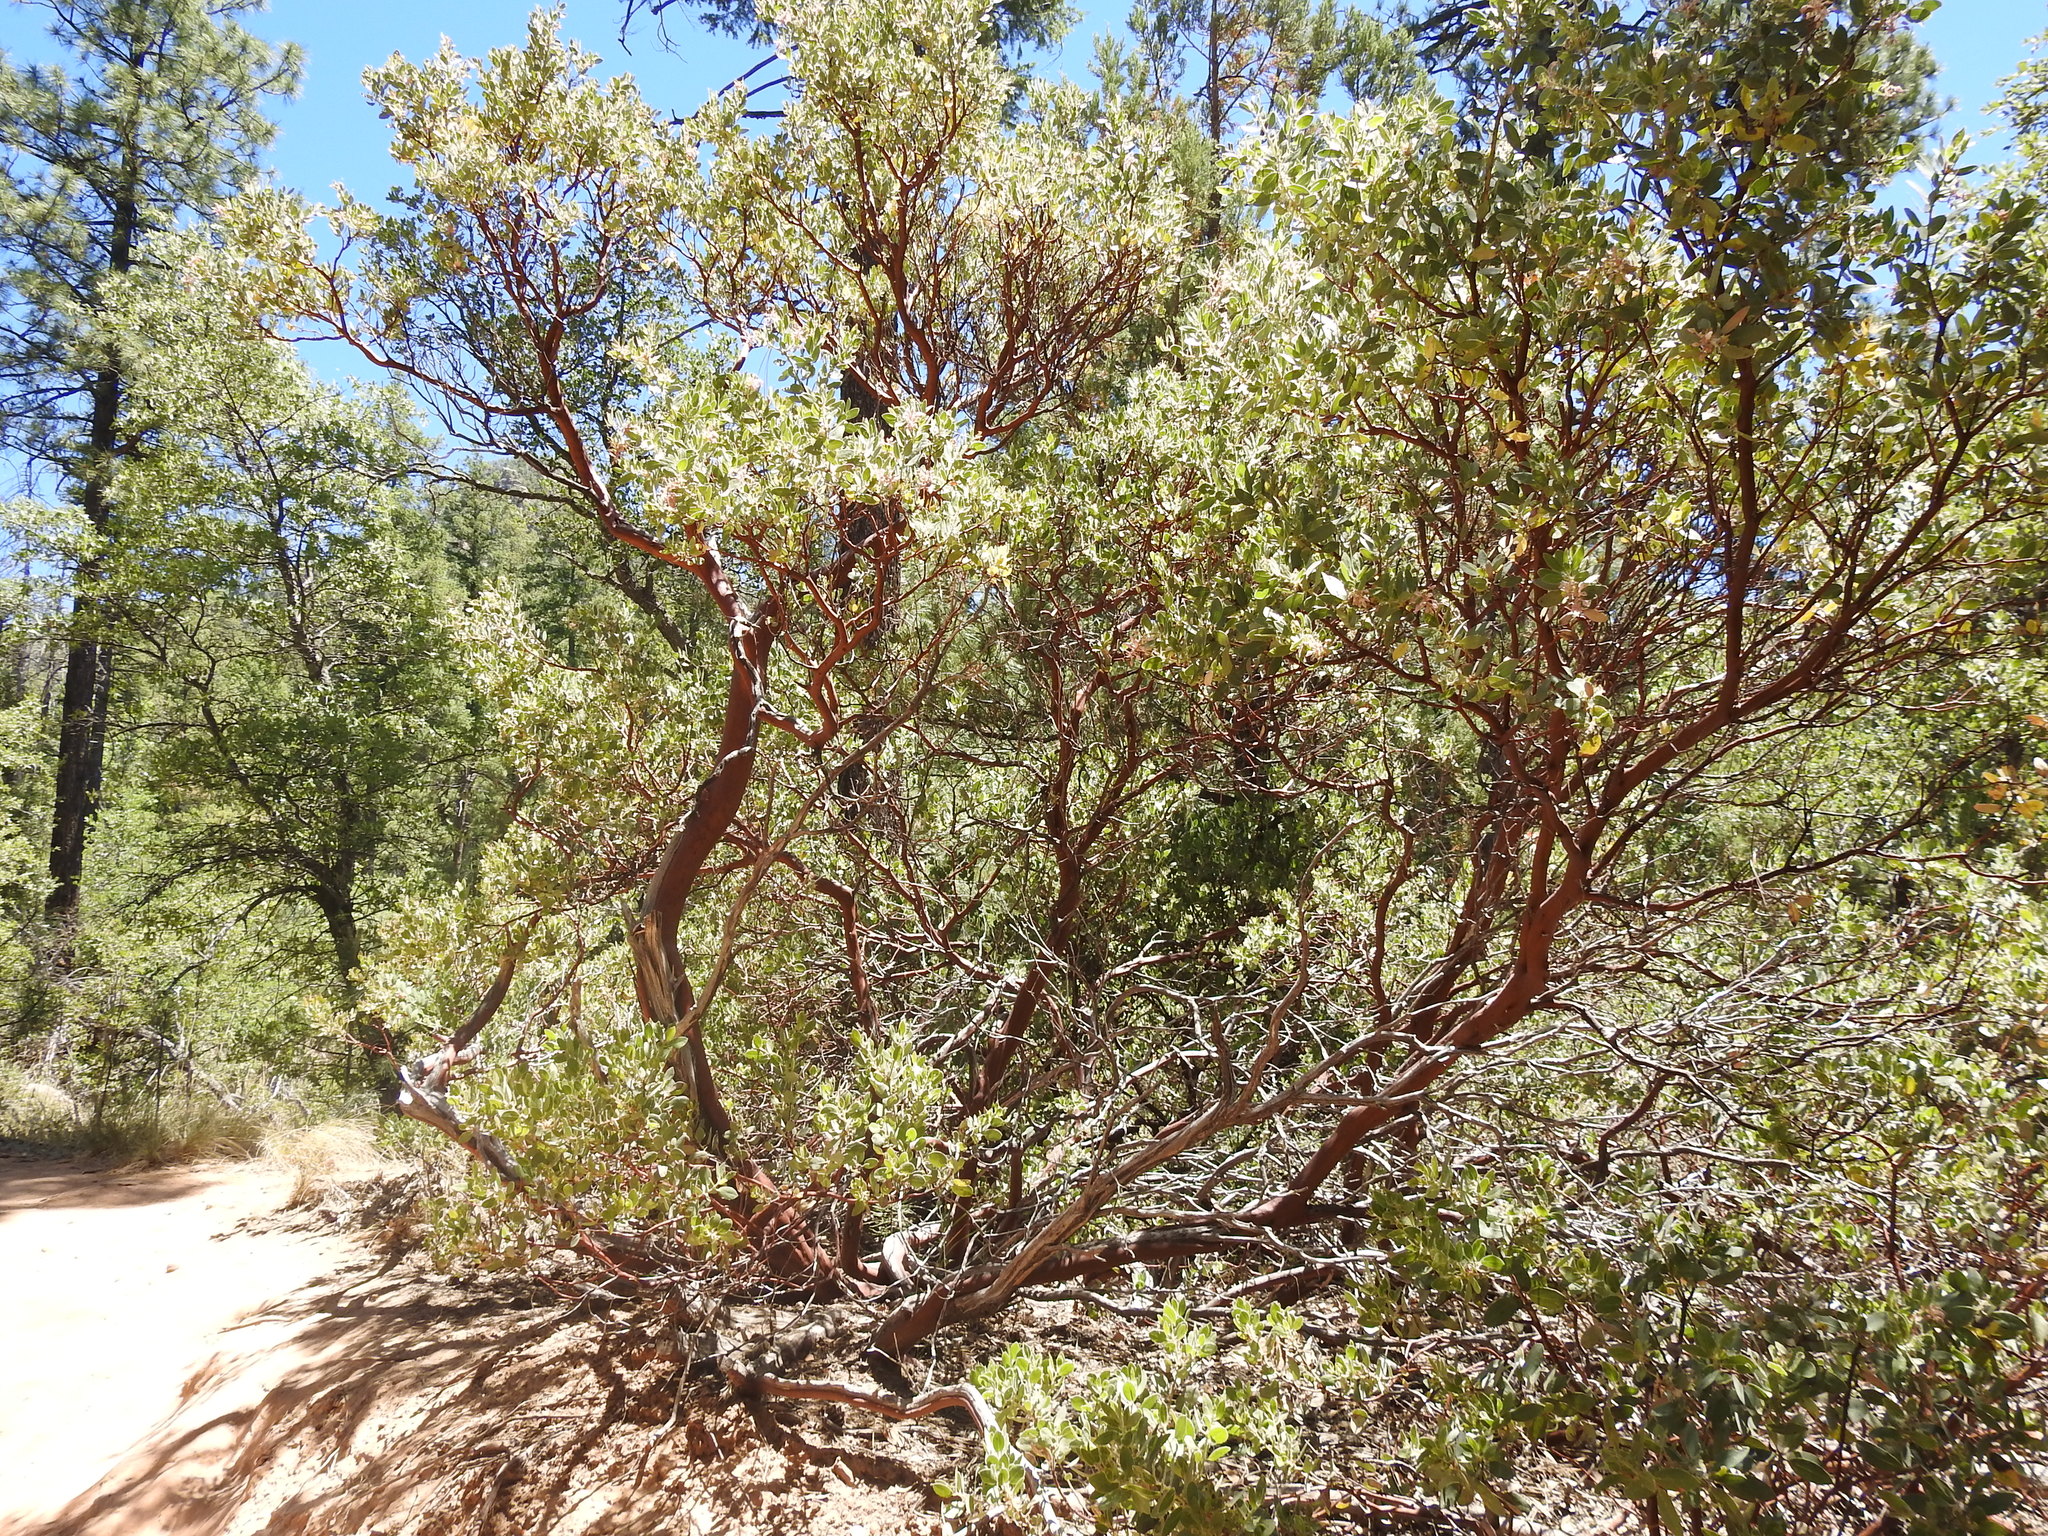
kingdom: Plantae
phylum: Tracheophyta
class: Magnoliopsida
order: Ericales
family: Ericaceae
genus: Arctostaphylos
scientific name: Arctostaphylos pringlei
